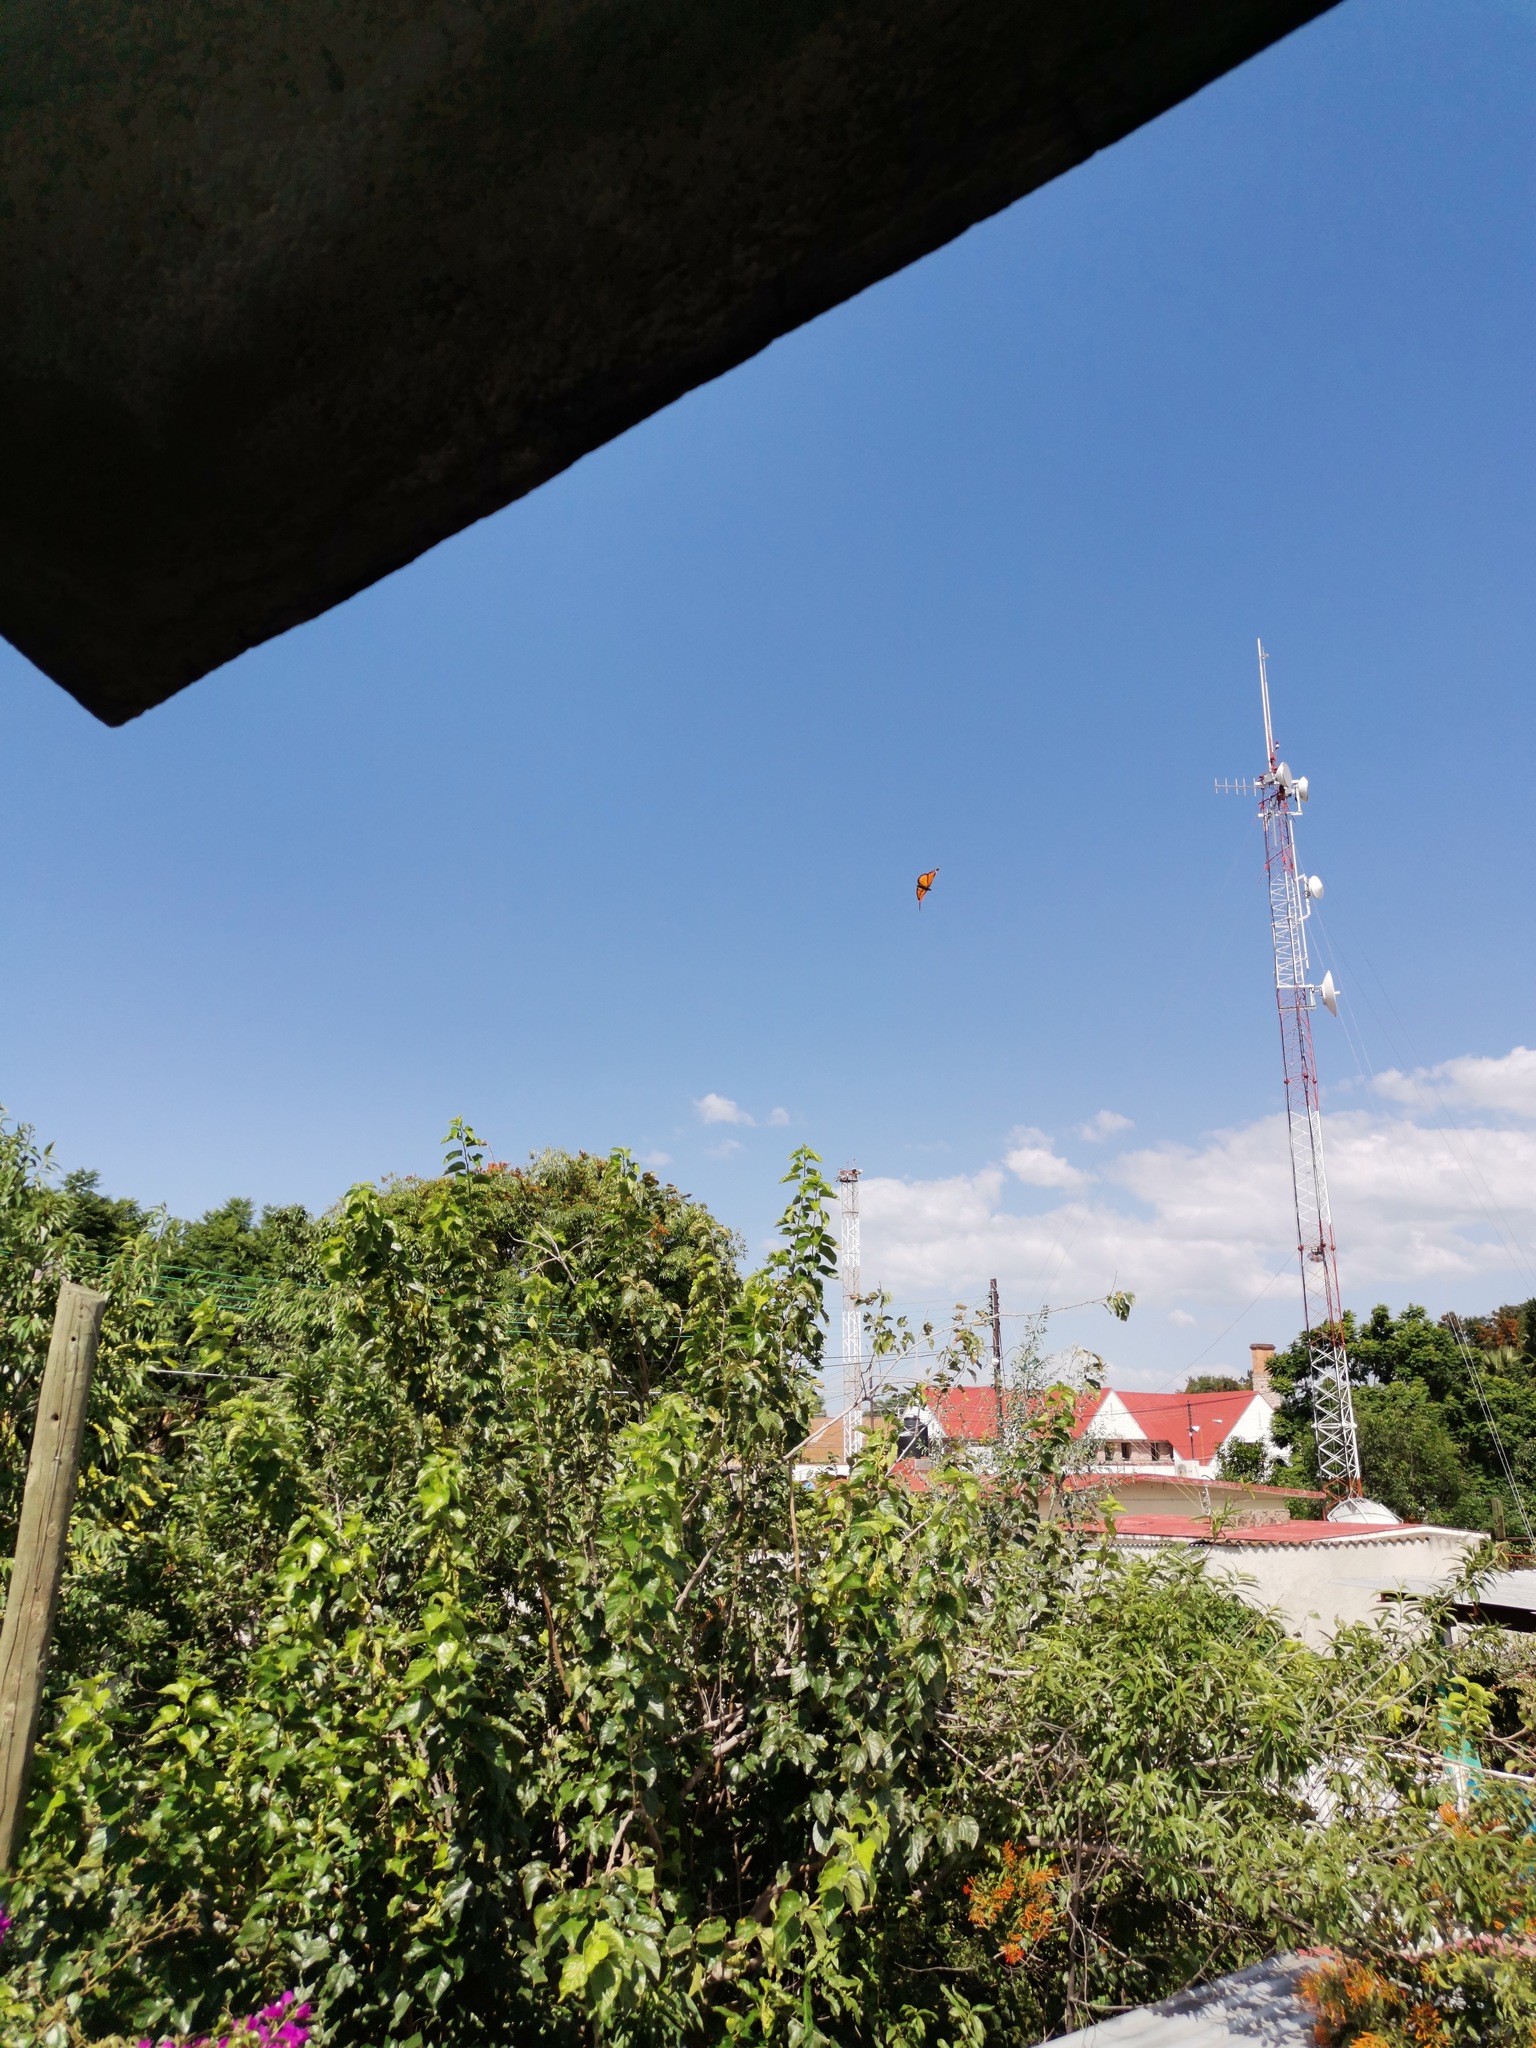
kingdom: Animalia
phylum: Arthropoda
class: Insecta
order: Lepidoptera
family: Nymphalidae
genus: Danaus
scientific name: Danaus plexippus
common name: Monarch
